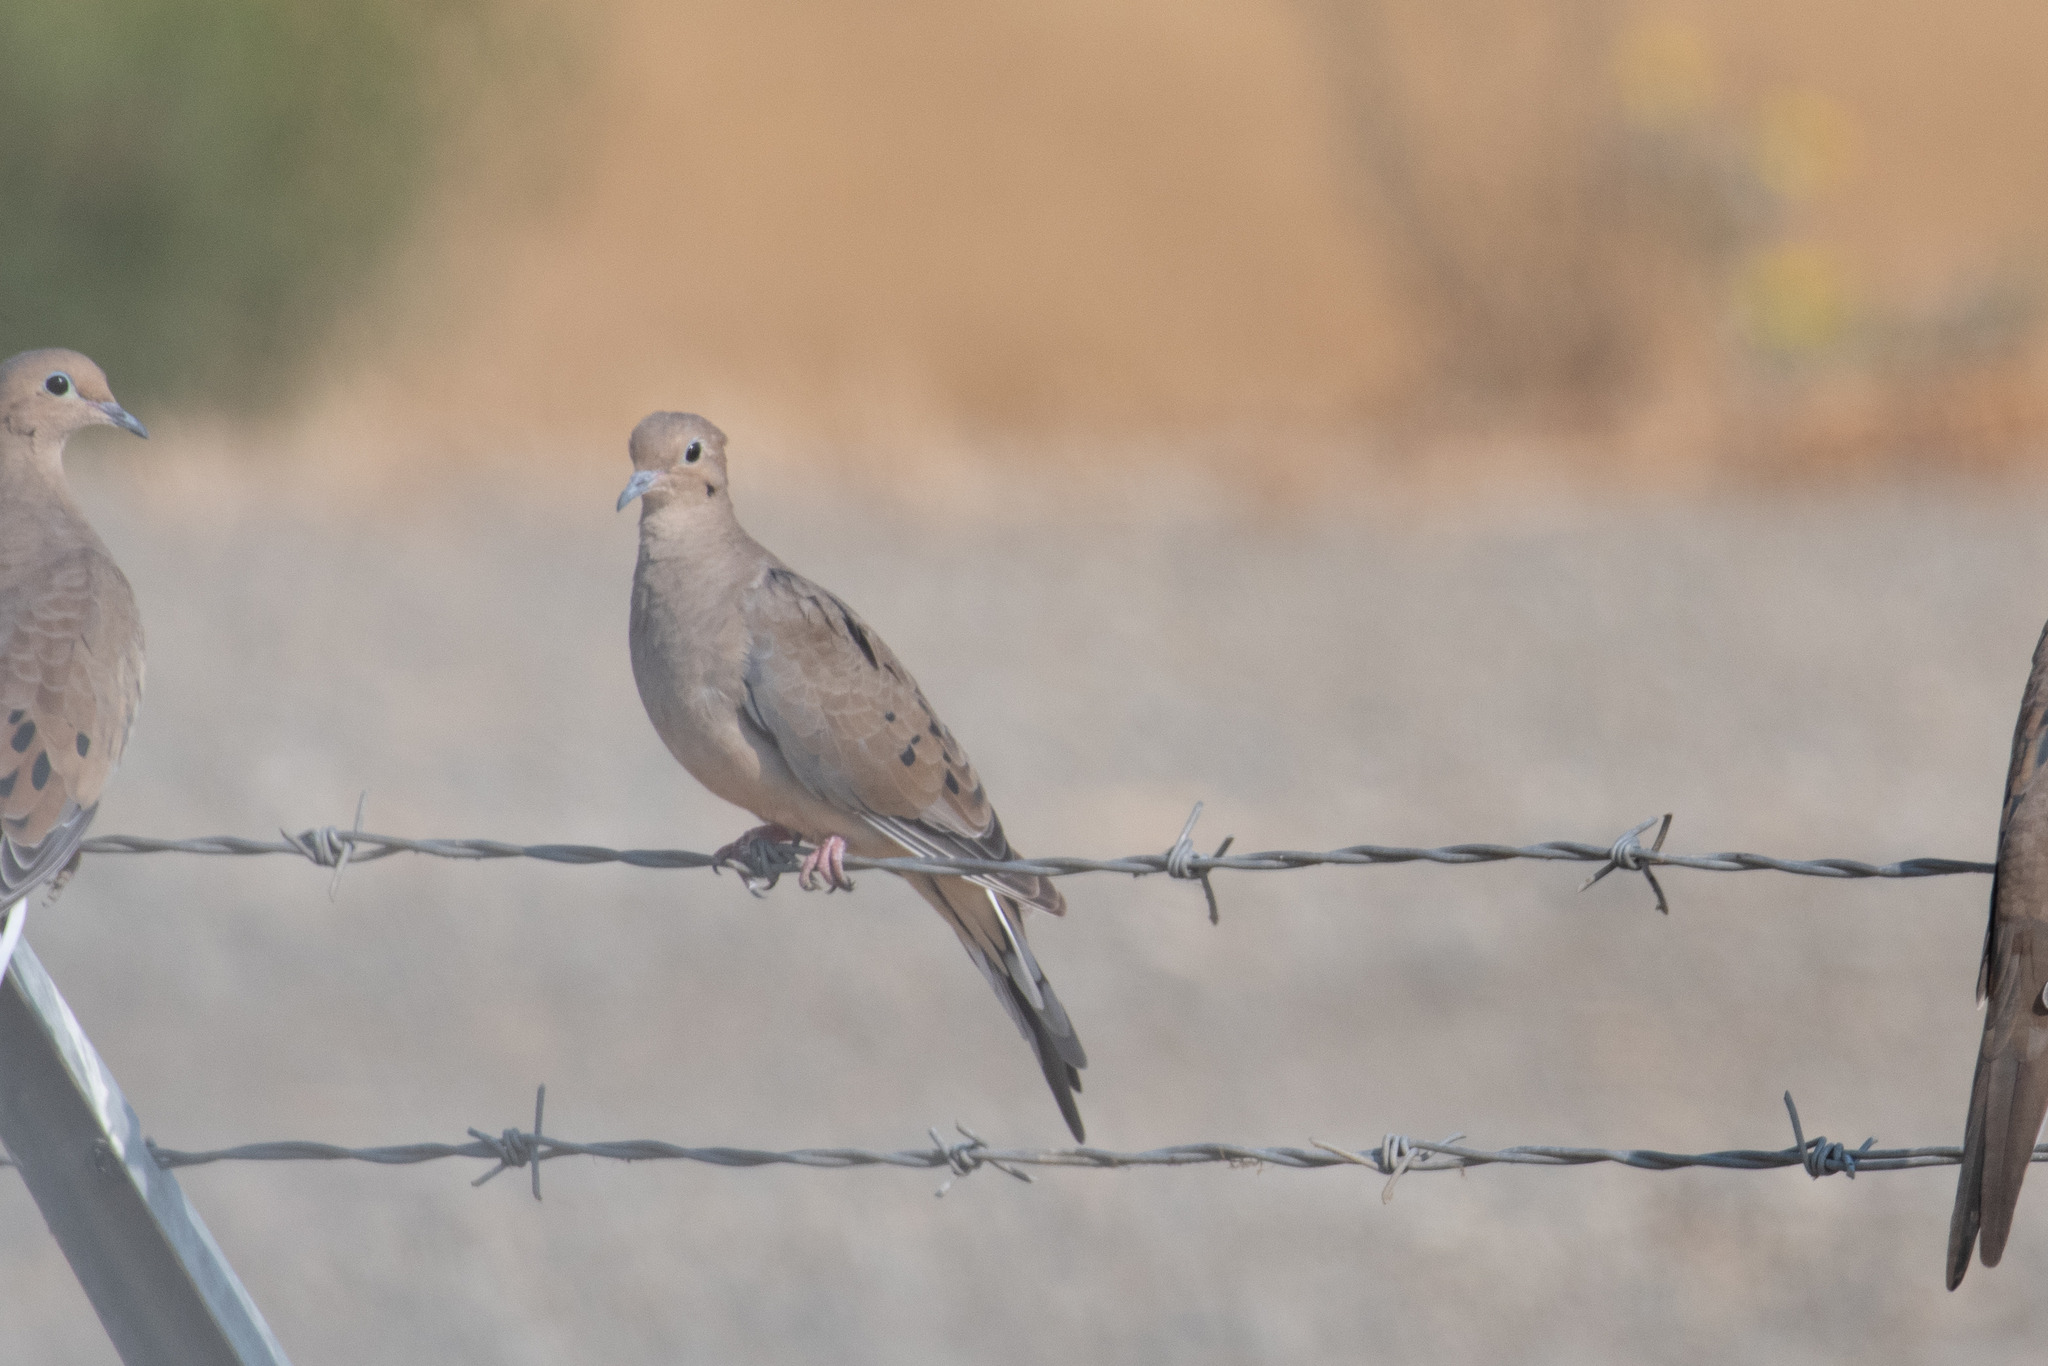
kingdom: Animalia
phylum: Chordata
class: Aves
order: Columbiformes
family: Columbidae
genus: Zenaida
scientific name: Zenaida macroura
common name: Mourning dove
